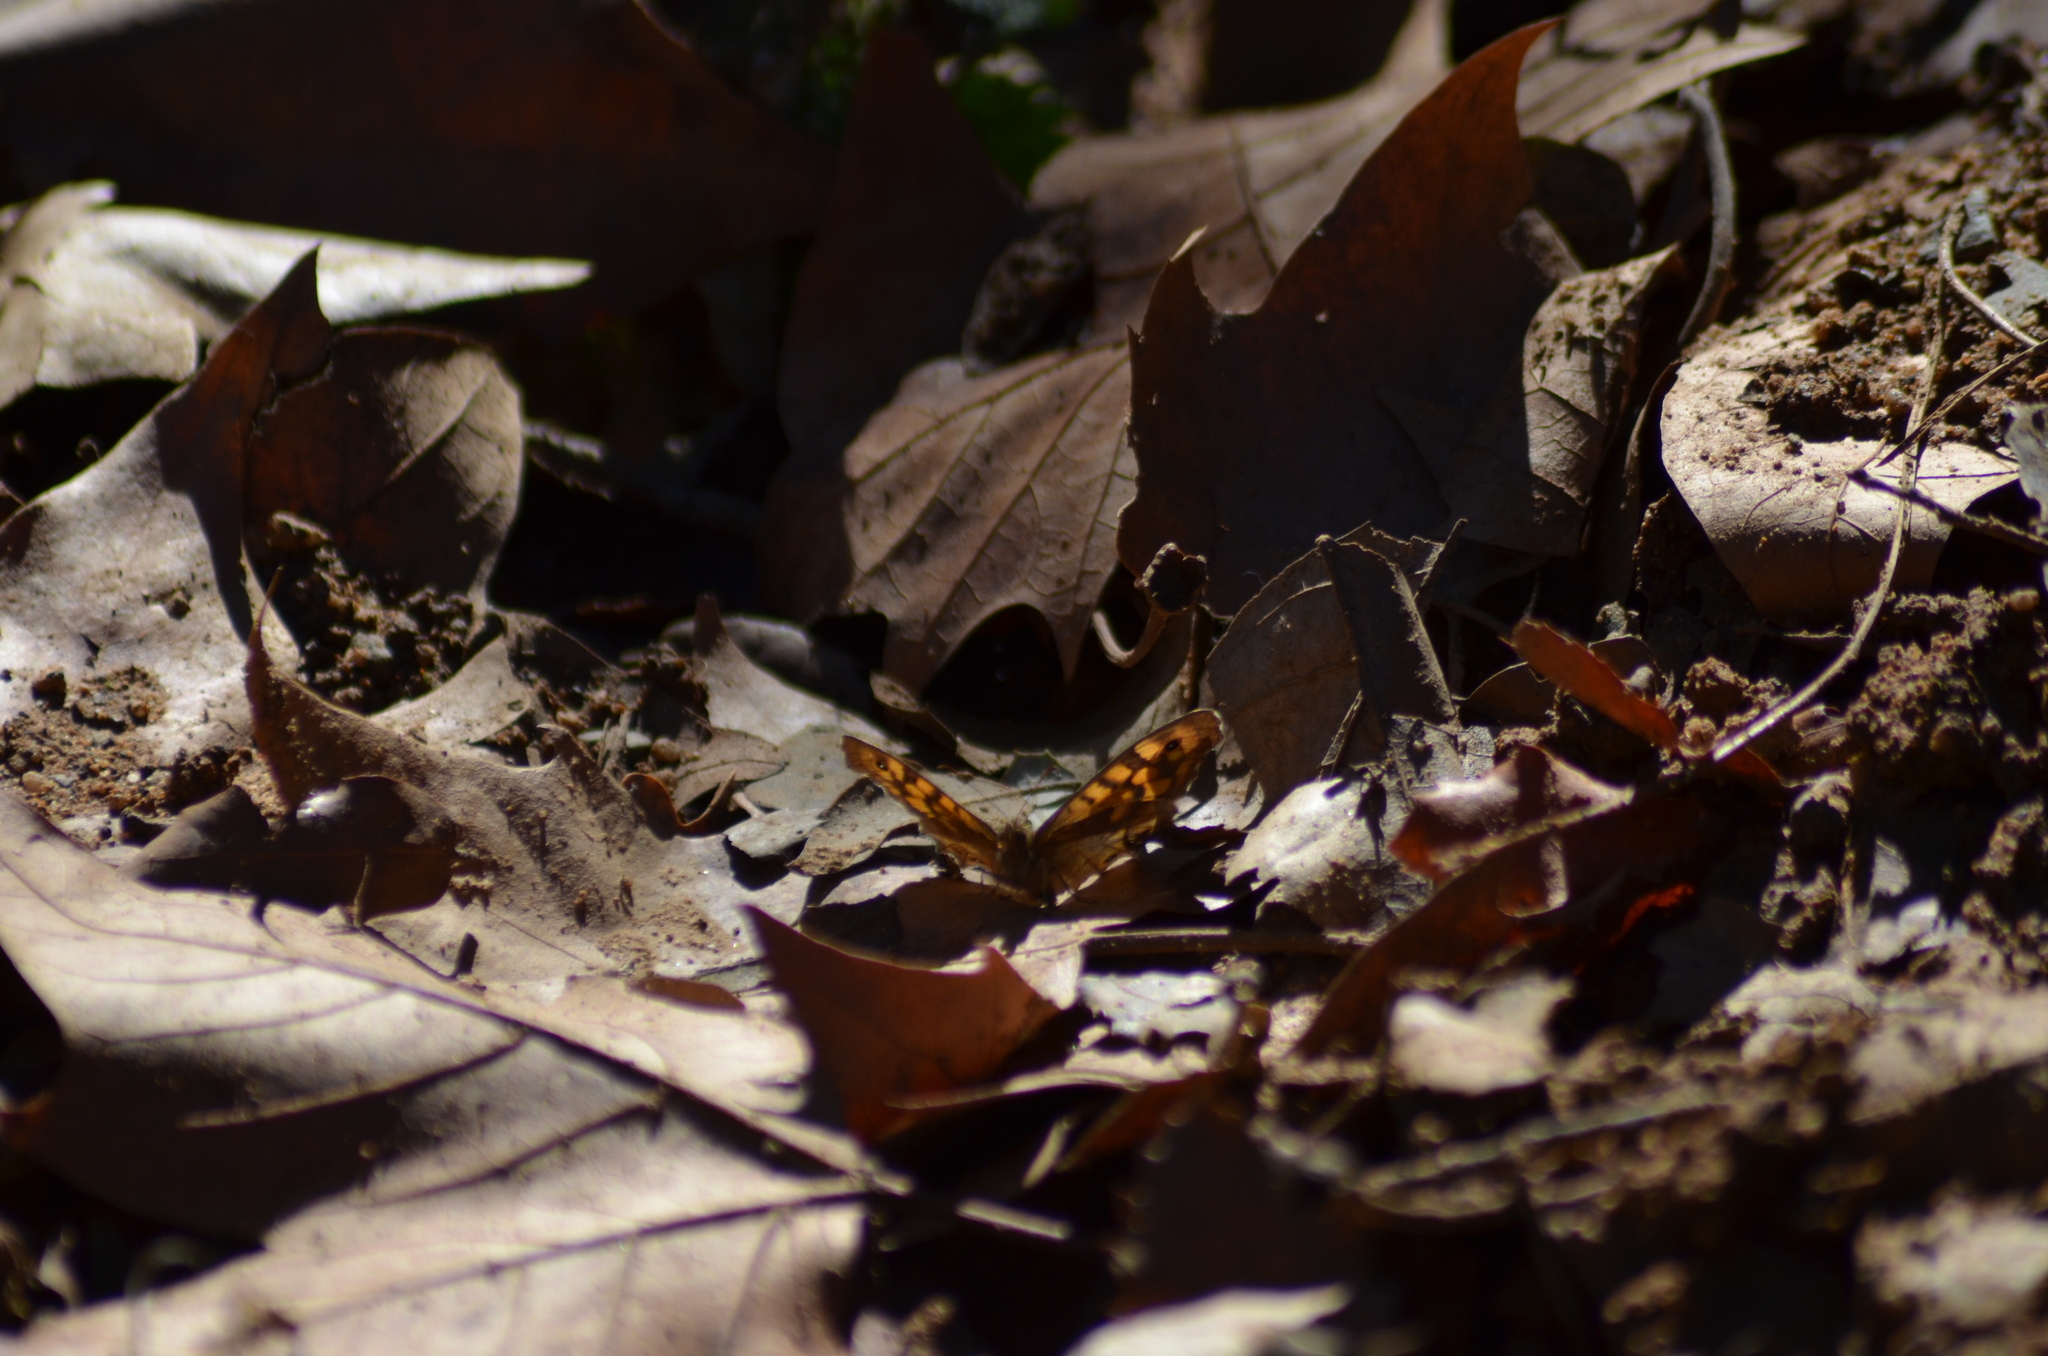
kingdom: Animalia
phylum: Arthropoda
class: Insecta
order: Lepidoptera
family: Nymphalidae
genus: Pararge
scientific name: Pararge aegeria
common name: Speckled wood
